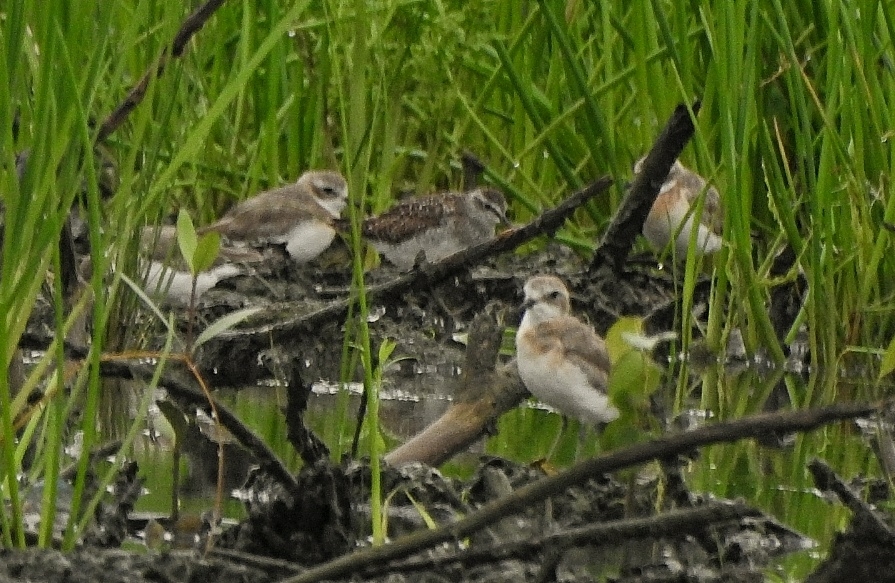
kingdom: Animalia
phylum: Chordata
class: Aves
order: Charadriiformes
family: Charadriidae
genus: Anarhynchus
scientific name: Anarhynchus
